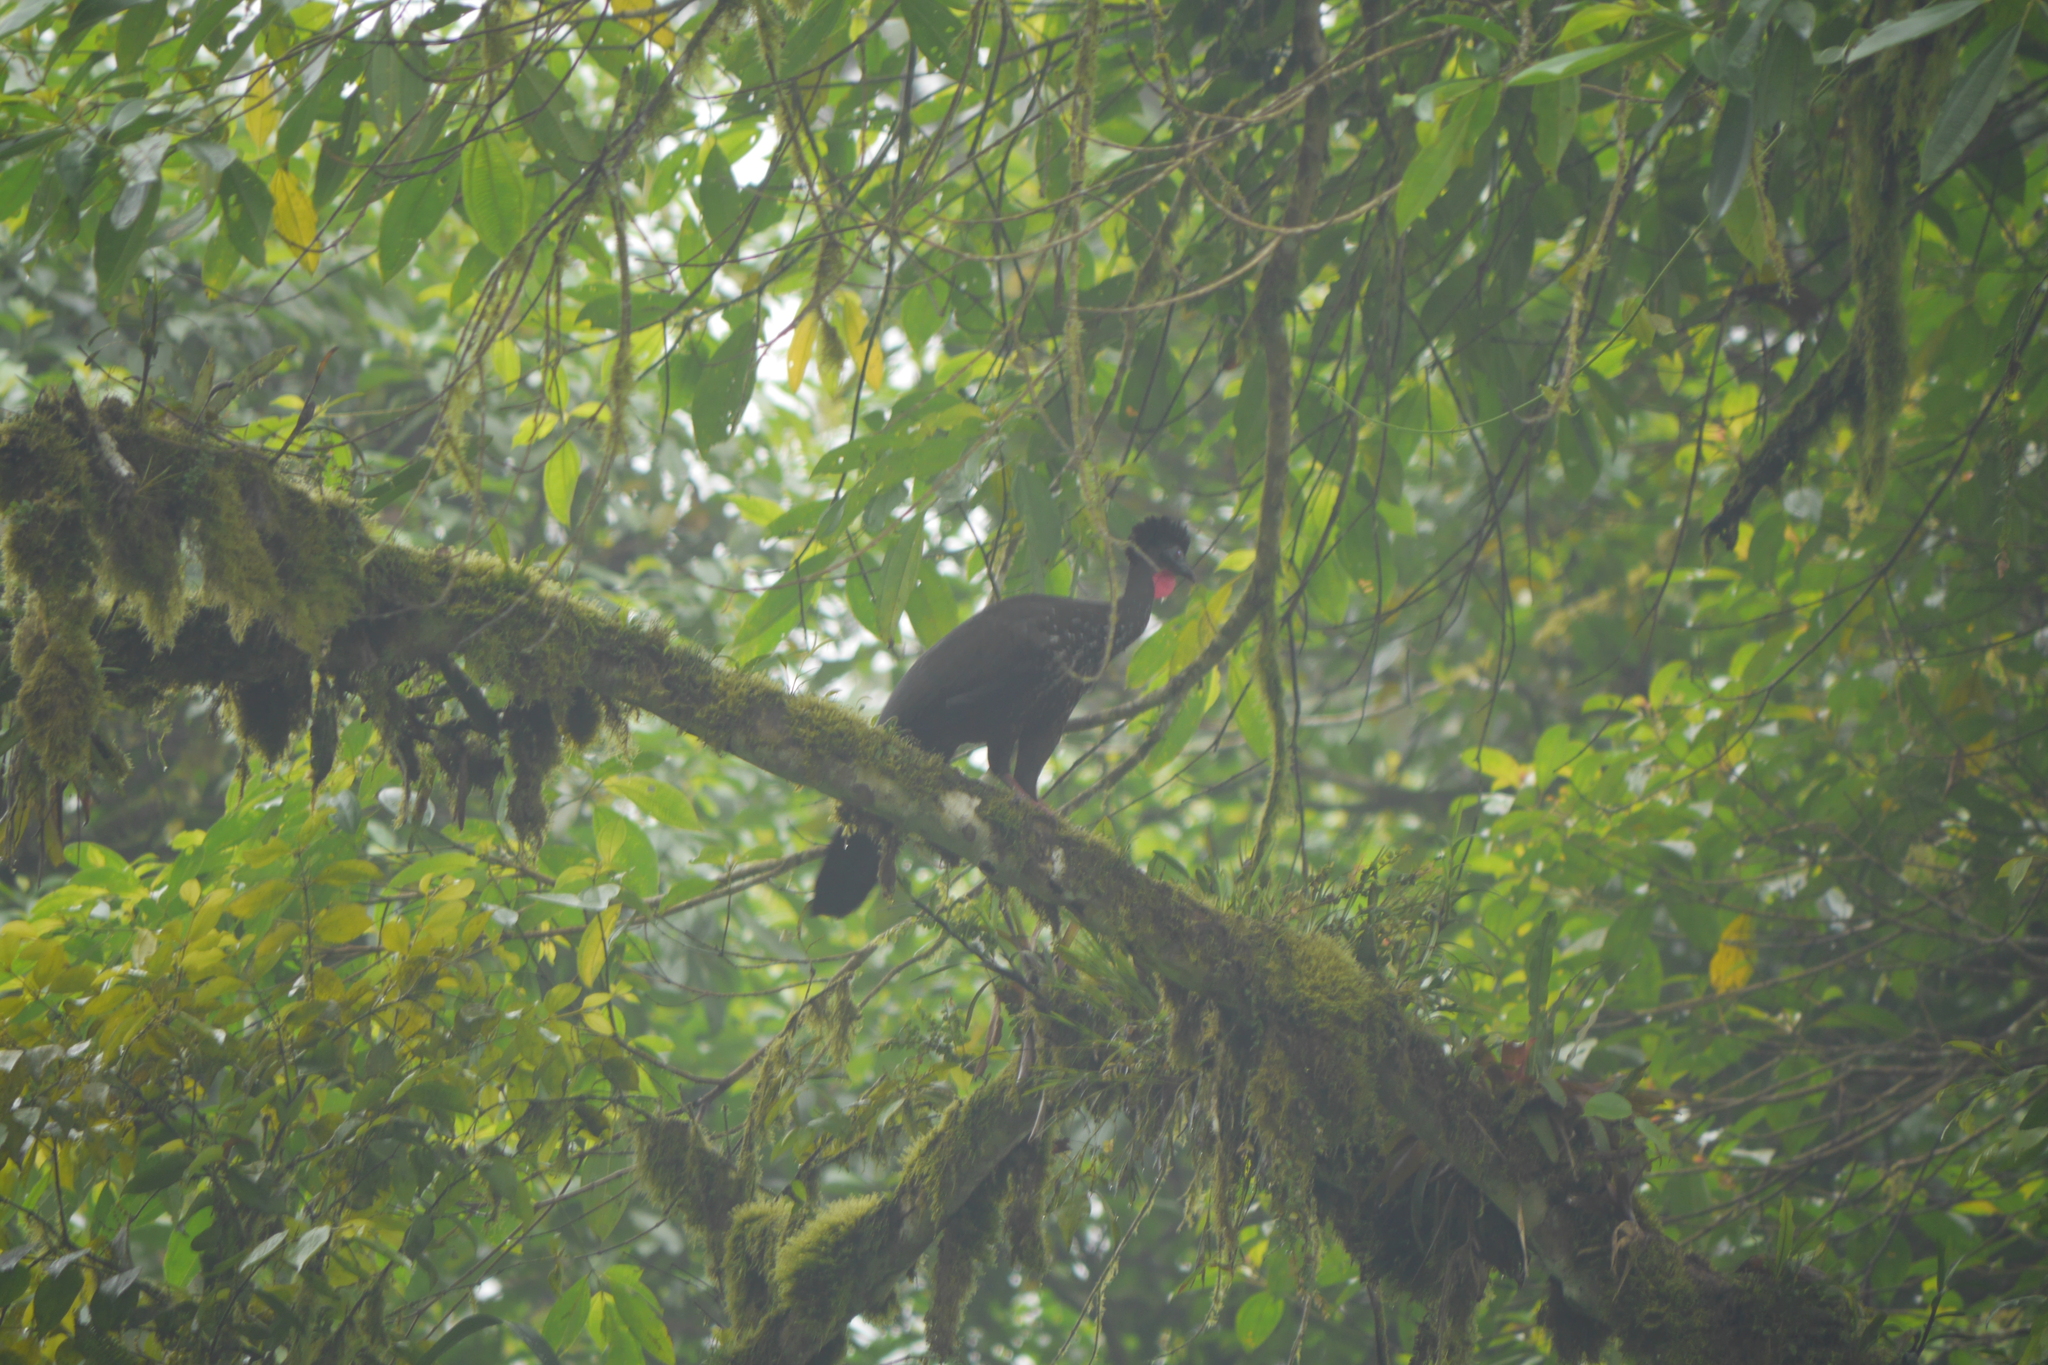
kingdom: Animalia
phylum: Chordata
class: Aves
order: Galliformes
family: Cracidae
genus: Penelope
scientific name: Penelope purpurascens
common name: Crested guan
